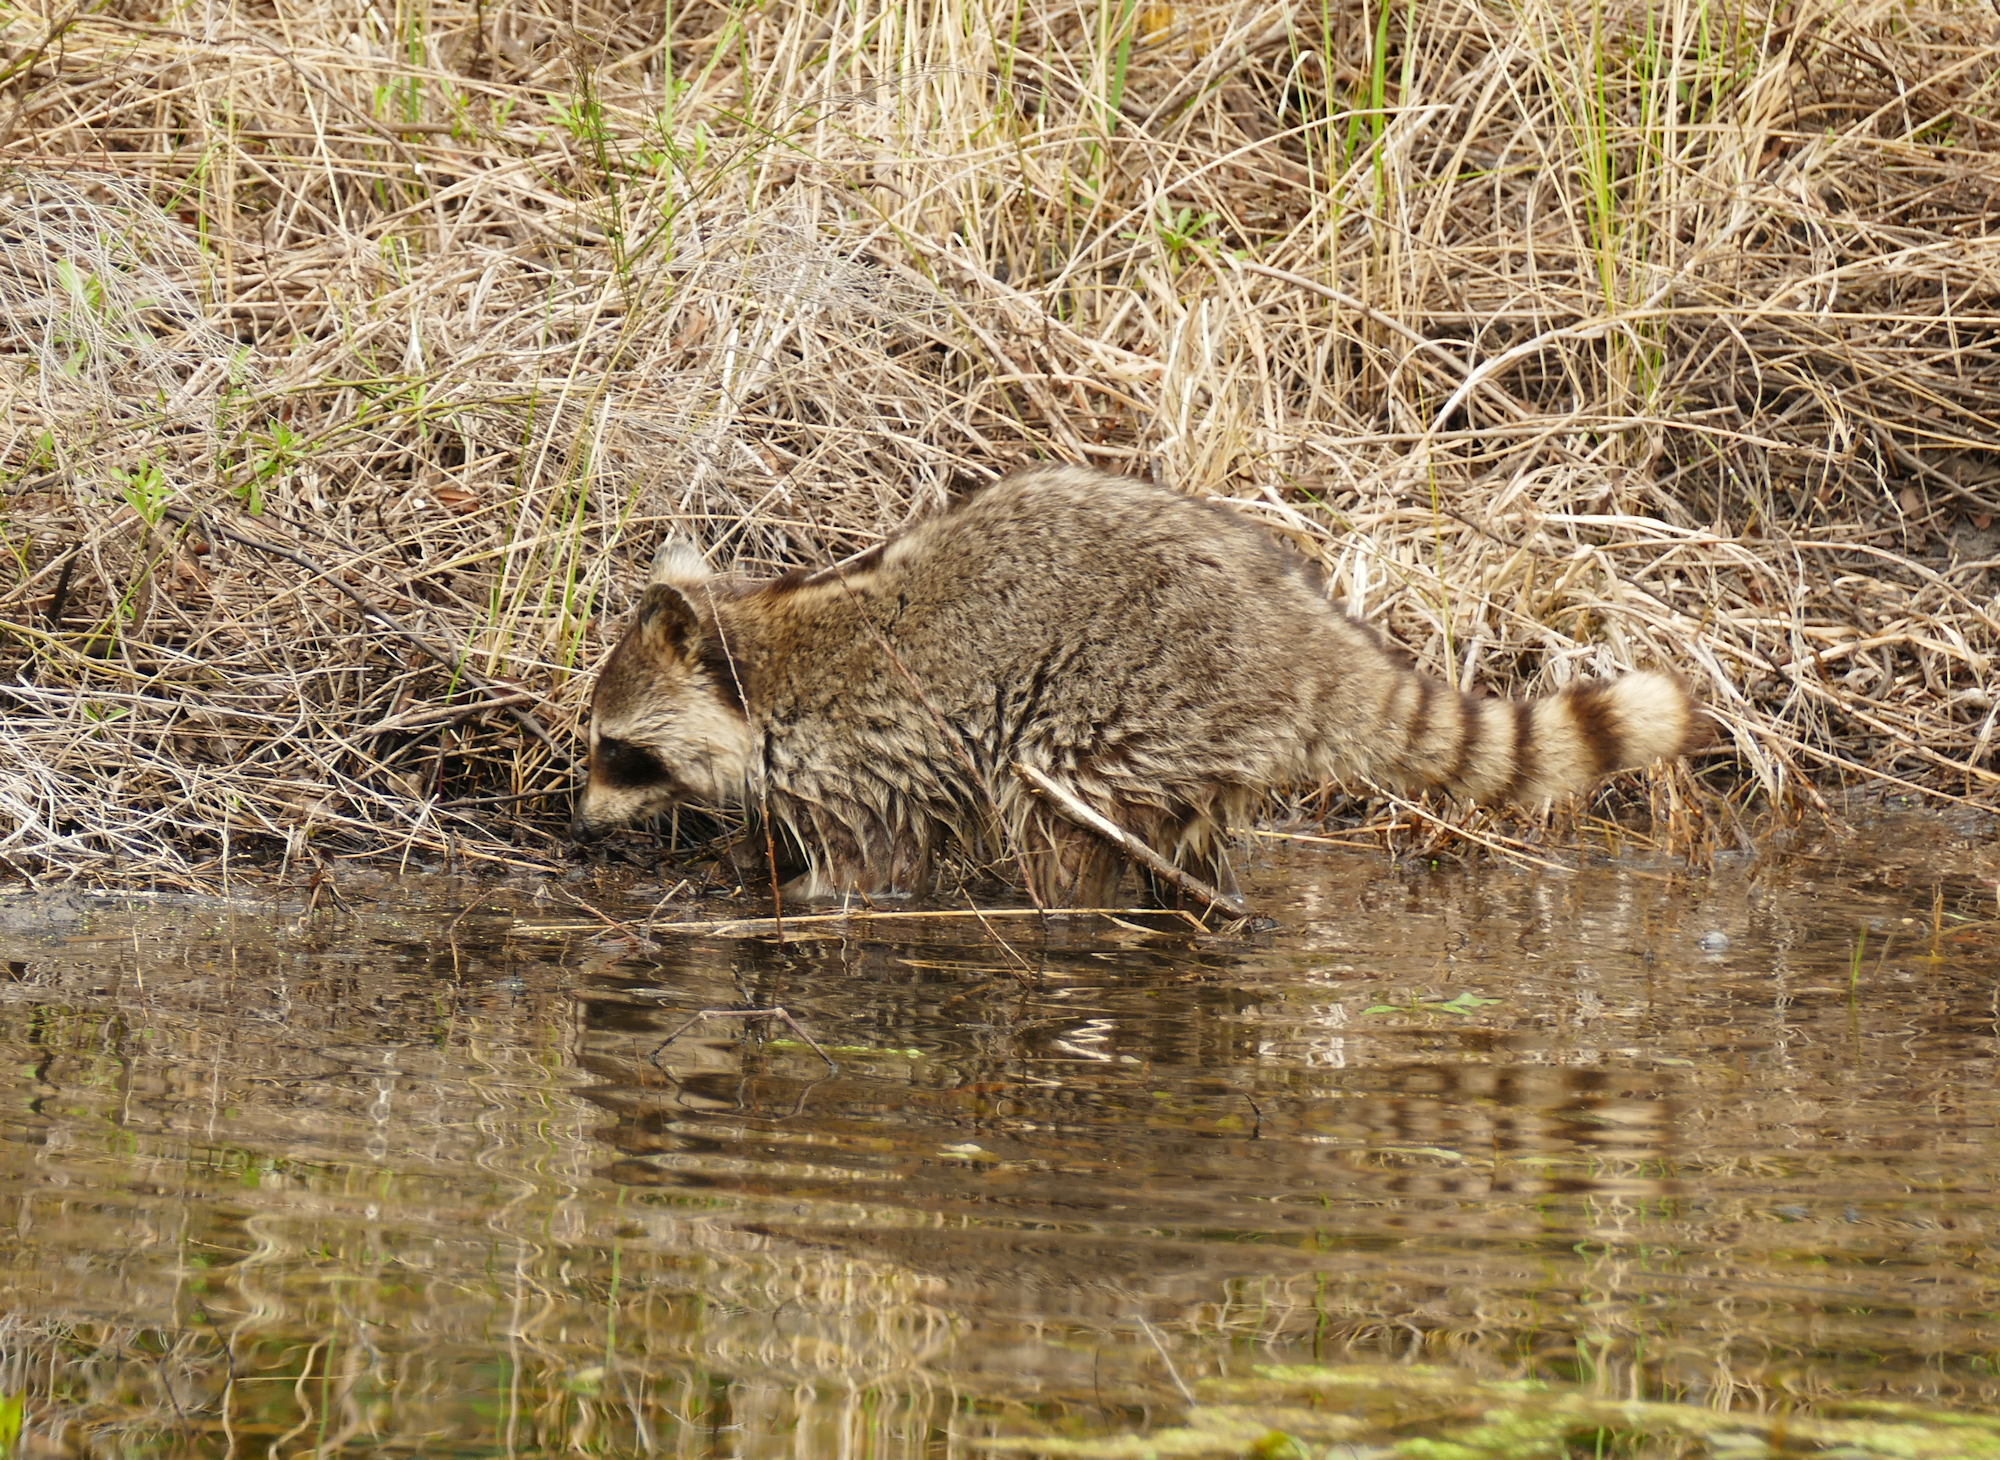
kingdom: Animalia
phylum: Chordata
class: Mammalia
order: Carnivora
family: Procyonidae
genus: Procyon
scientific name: Procyon lotor
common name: Raccoon
